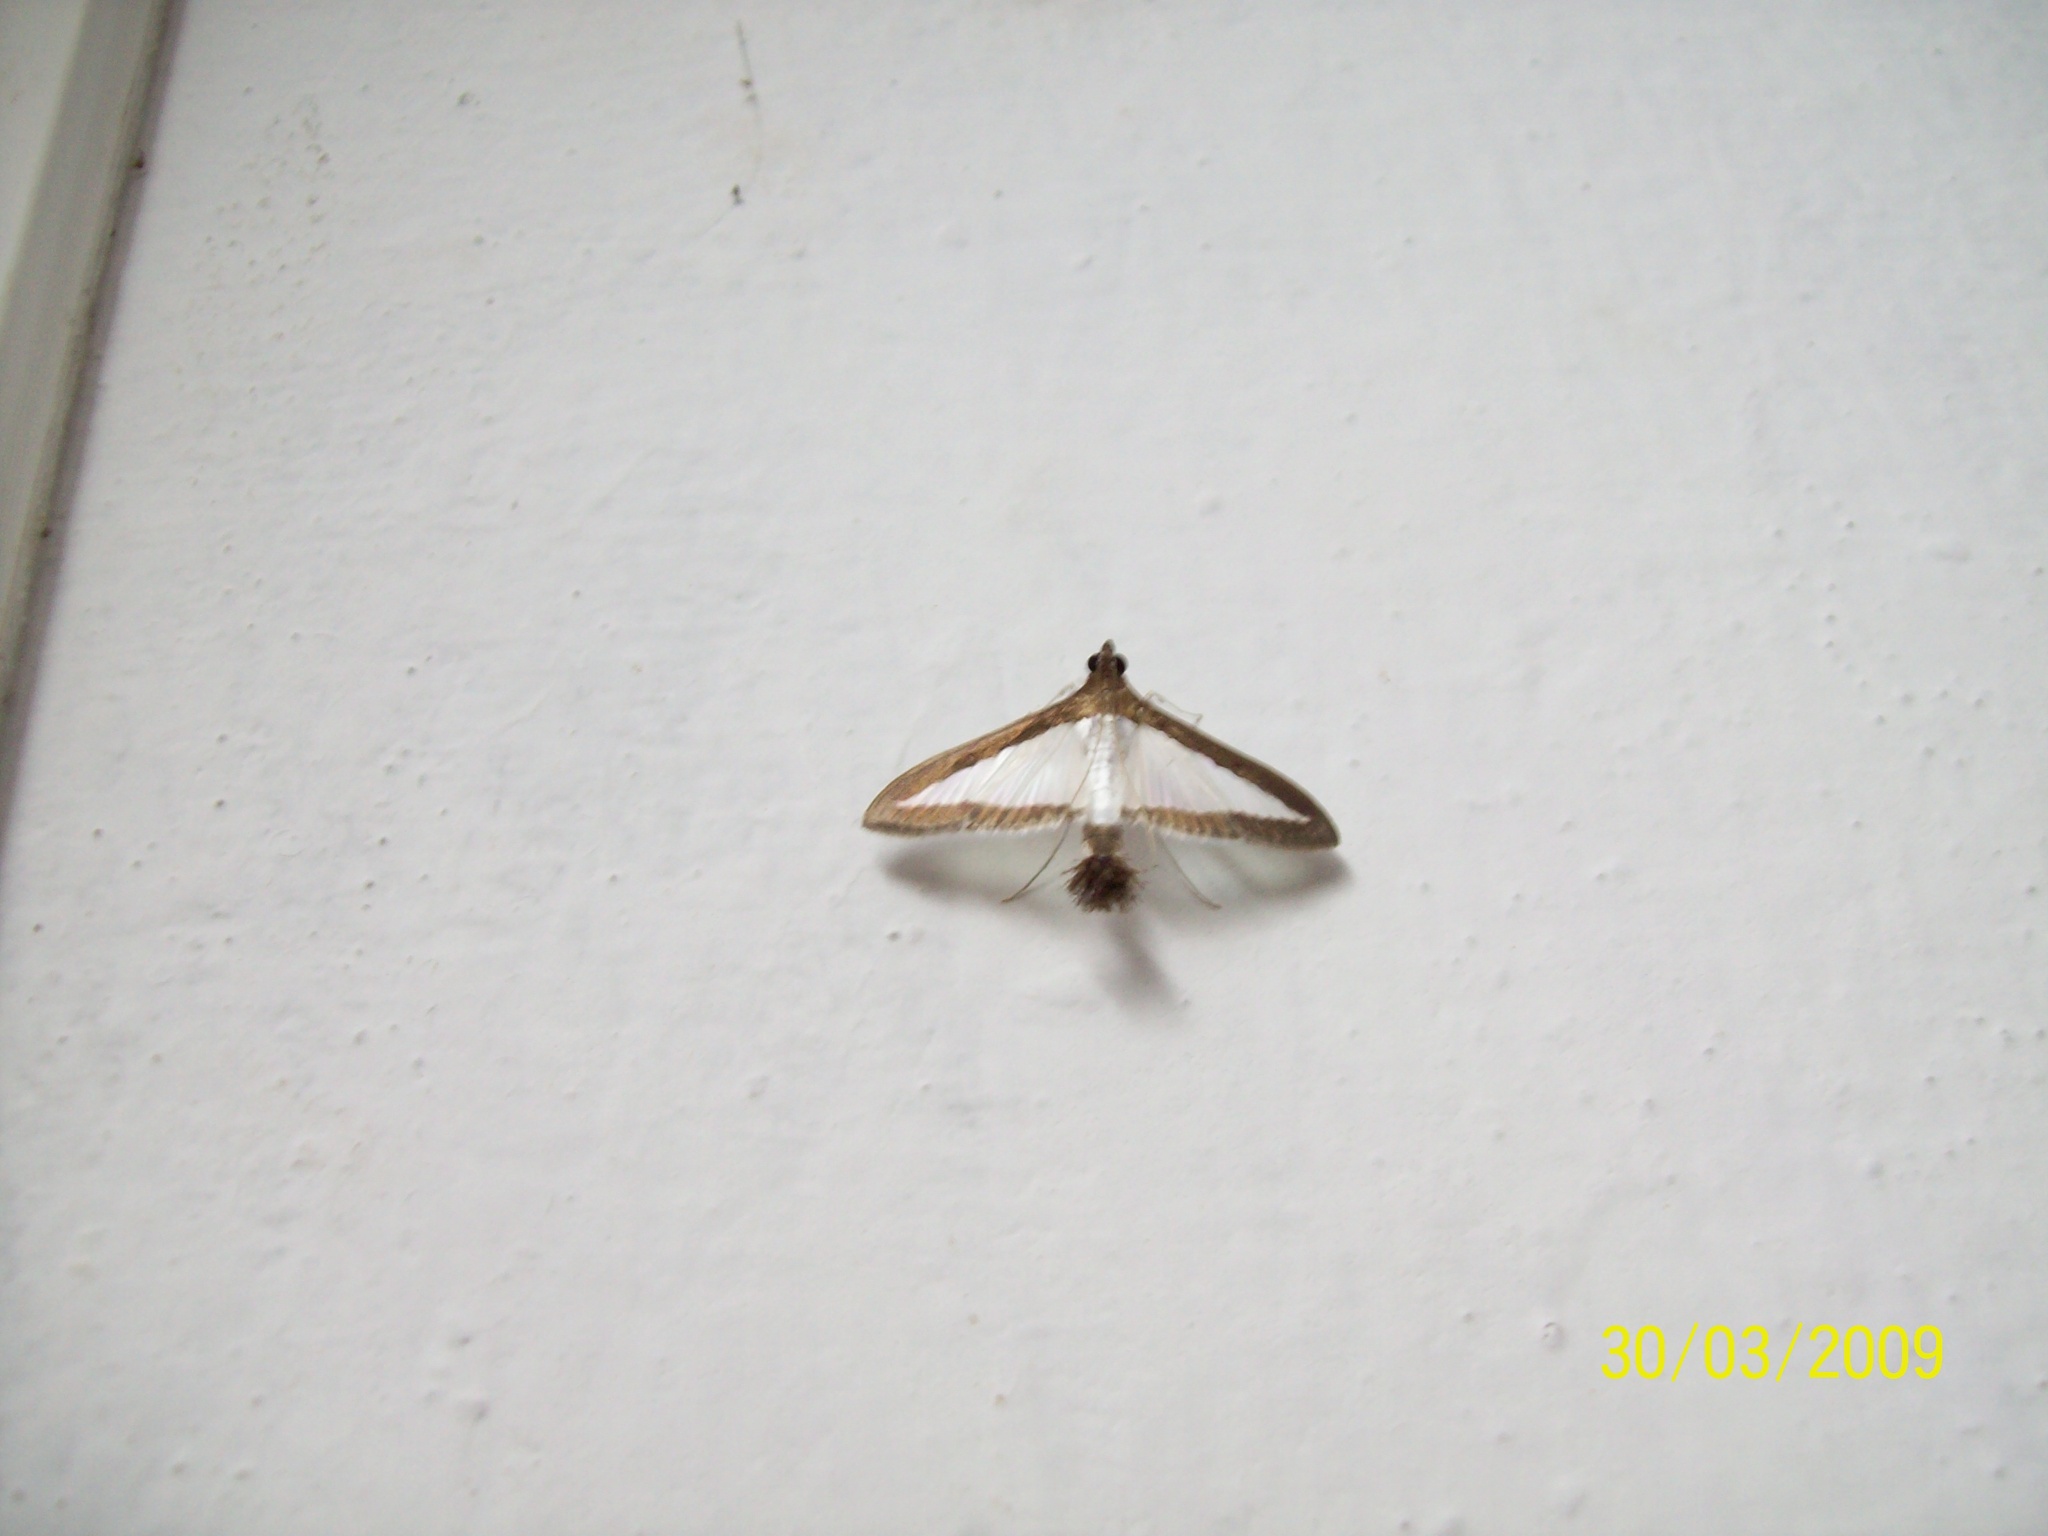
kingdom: Animalia
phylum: Arthropoda
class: Insecta
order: Lepidoptera
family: Crambidae
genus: Diaphania
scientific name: Diaphania hyalinata
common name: Melonworm
